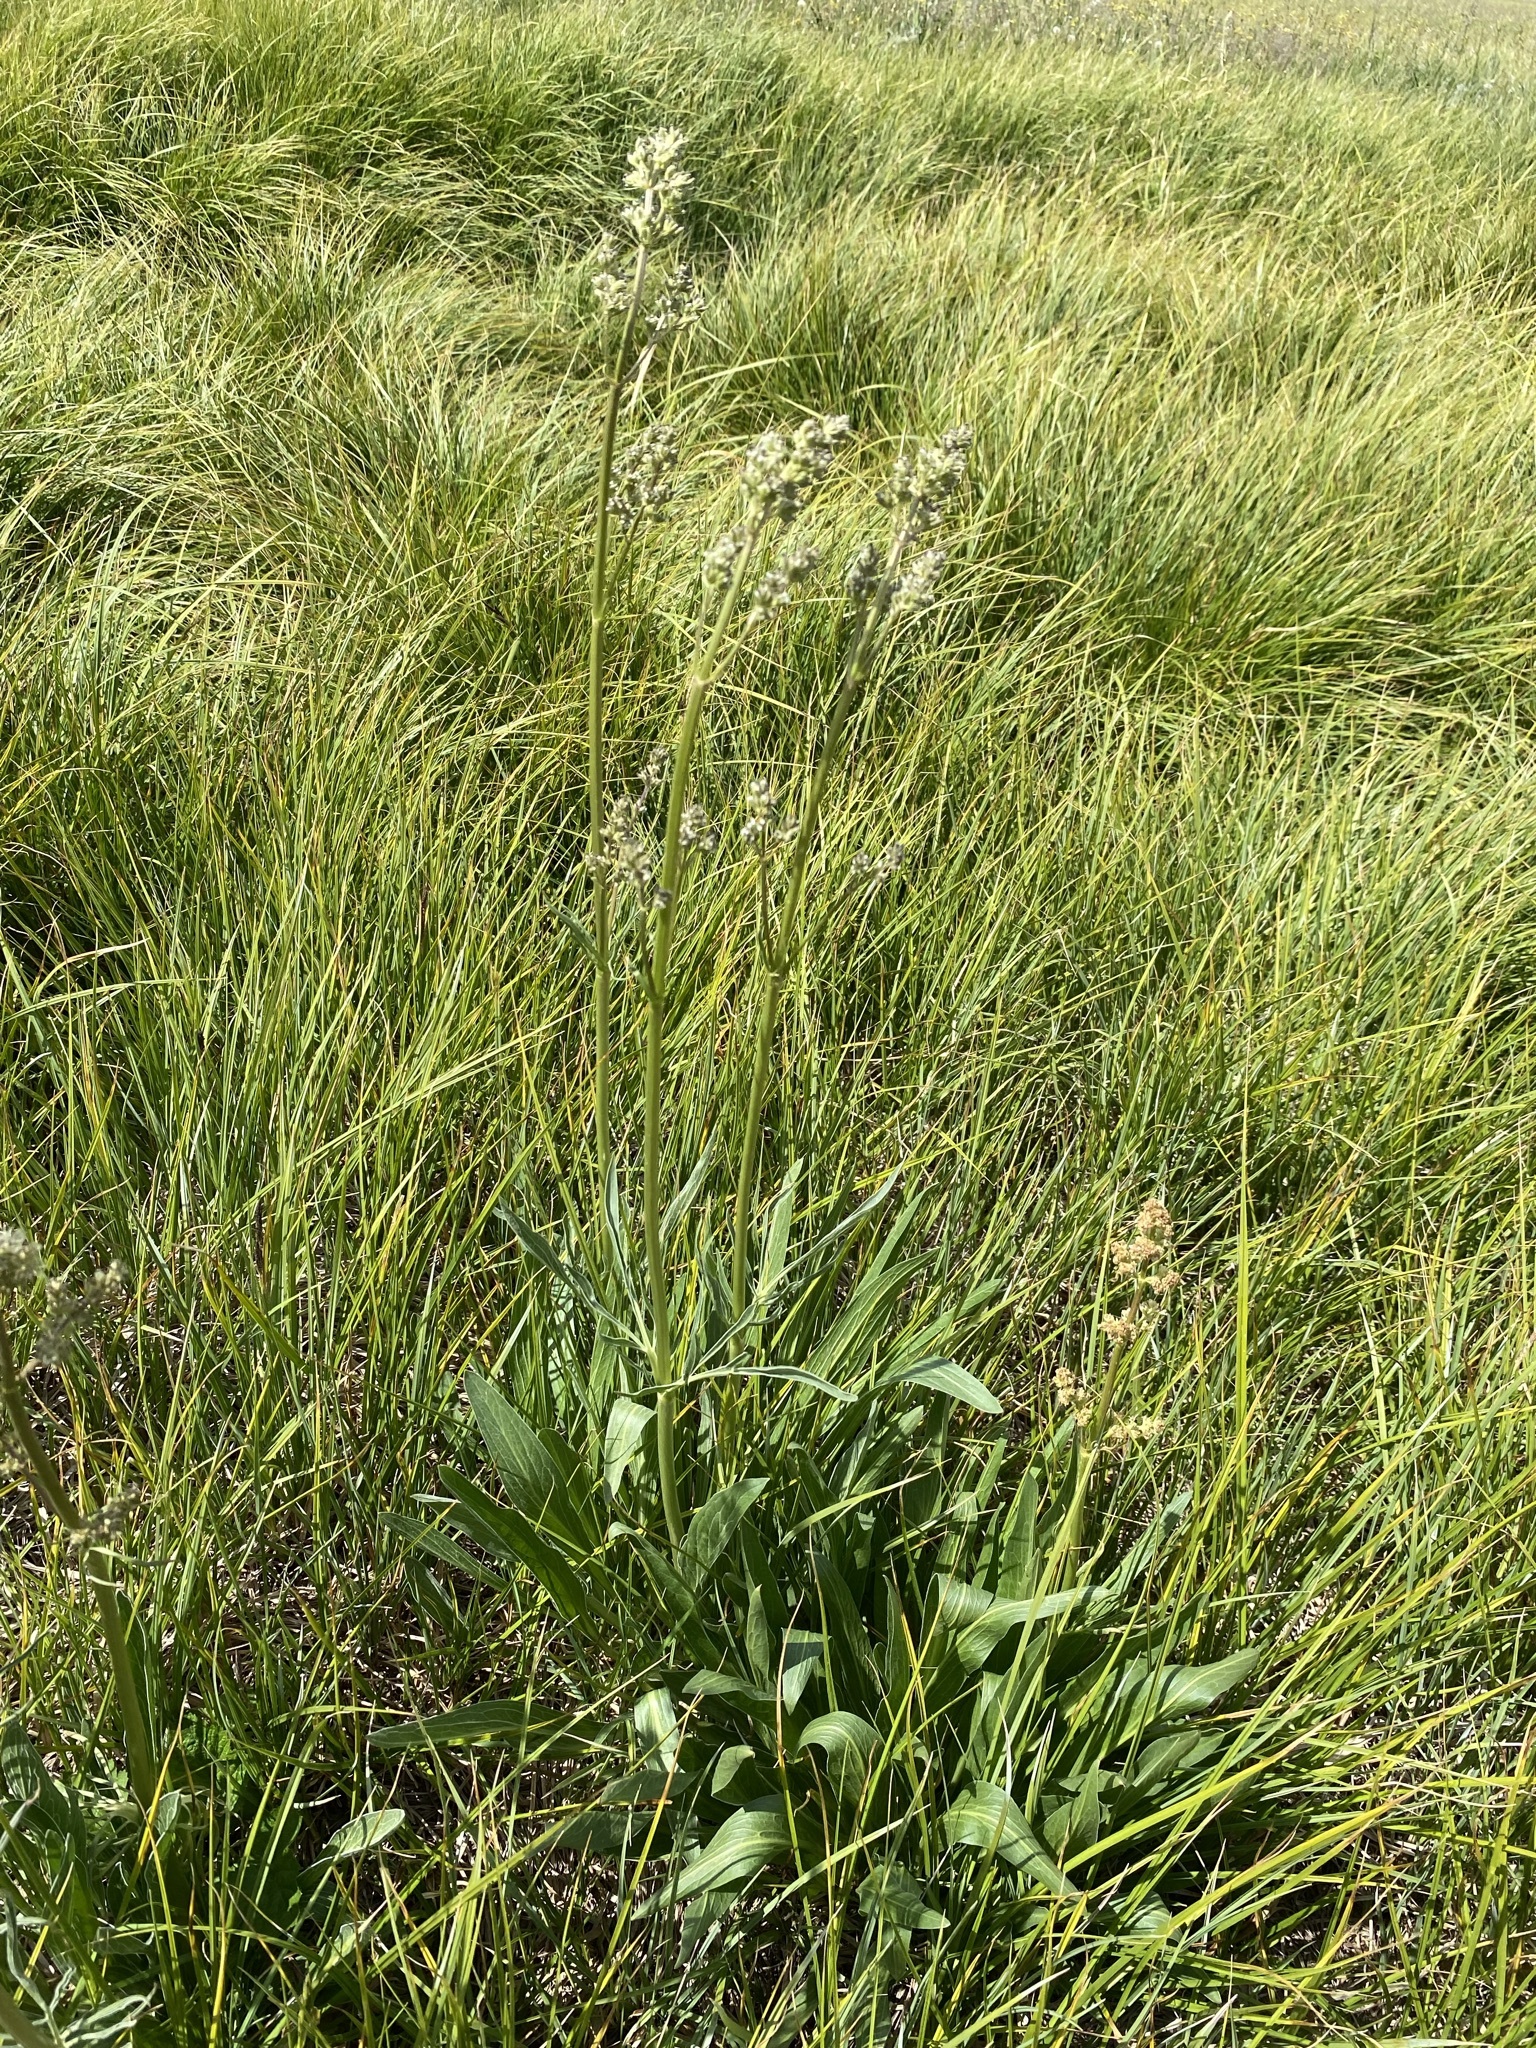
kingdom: Plantae
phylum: Tracheophyta
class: Magnoliopsida
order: Dipsacales
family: Caprifoliaceae
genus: Valeriana
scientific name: Valeriana edulis
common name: Taproot valerian
